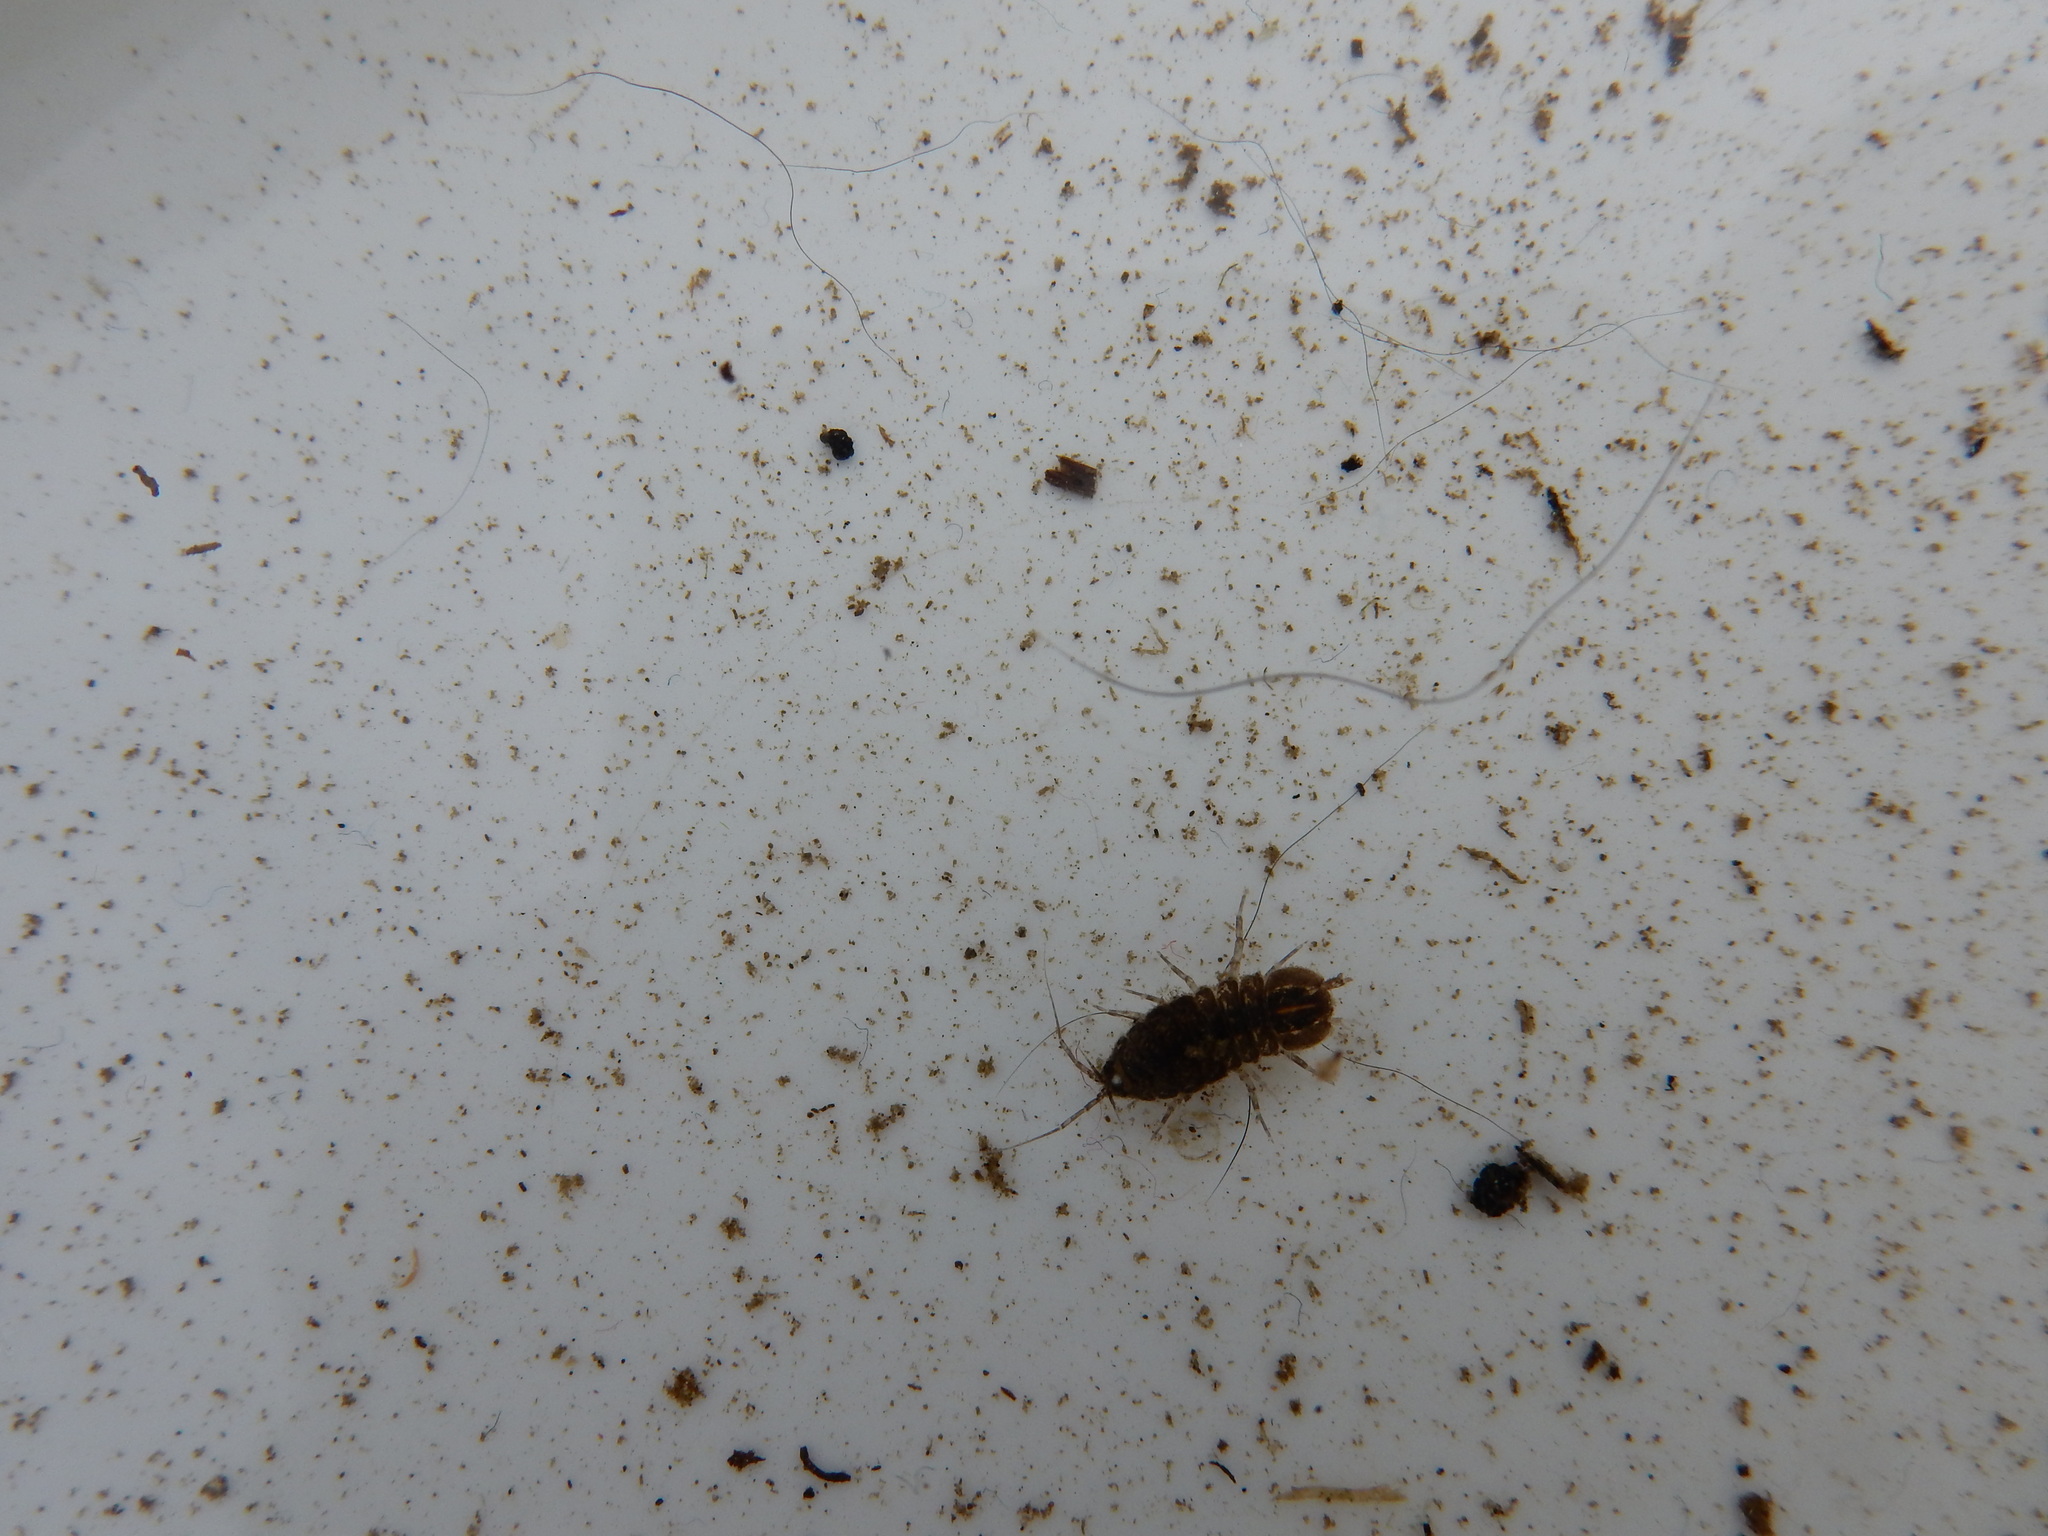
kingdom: Animalia
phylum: Arthropoda
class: Malacostraca
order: Isopoda
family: Asellidae
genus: Asellus
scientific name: Asellus aquaticus
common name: Water hog lice/slaters
